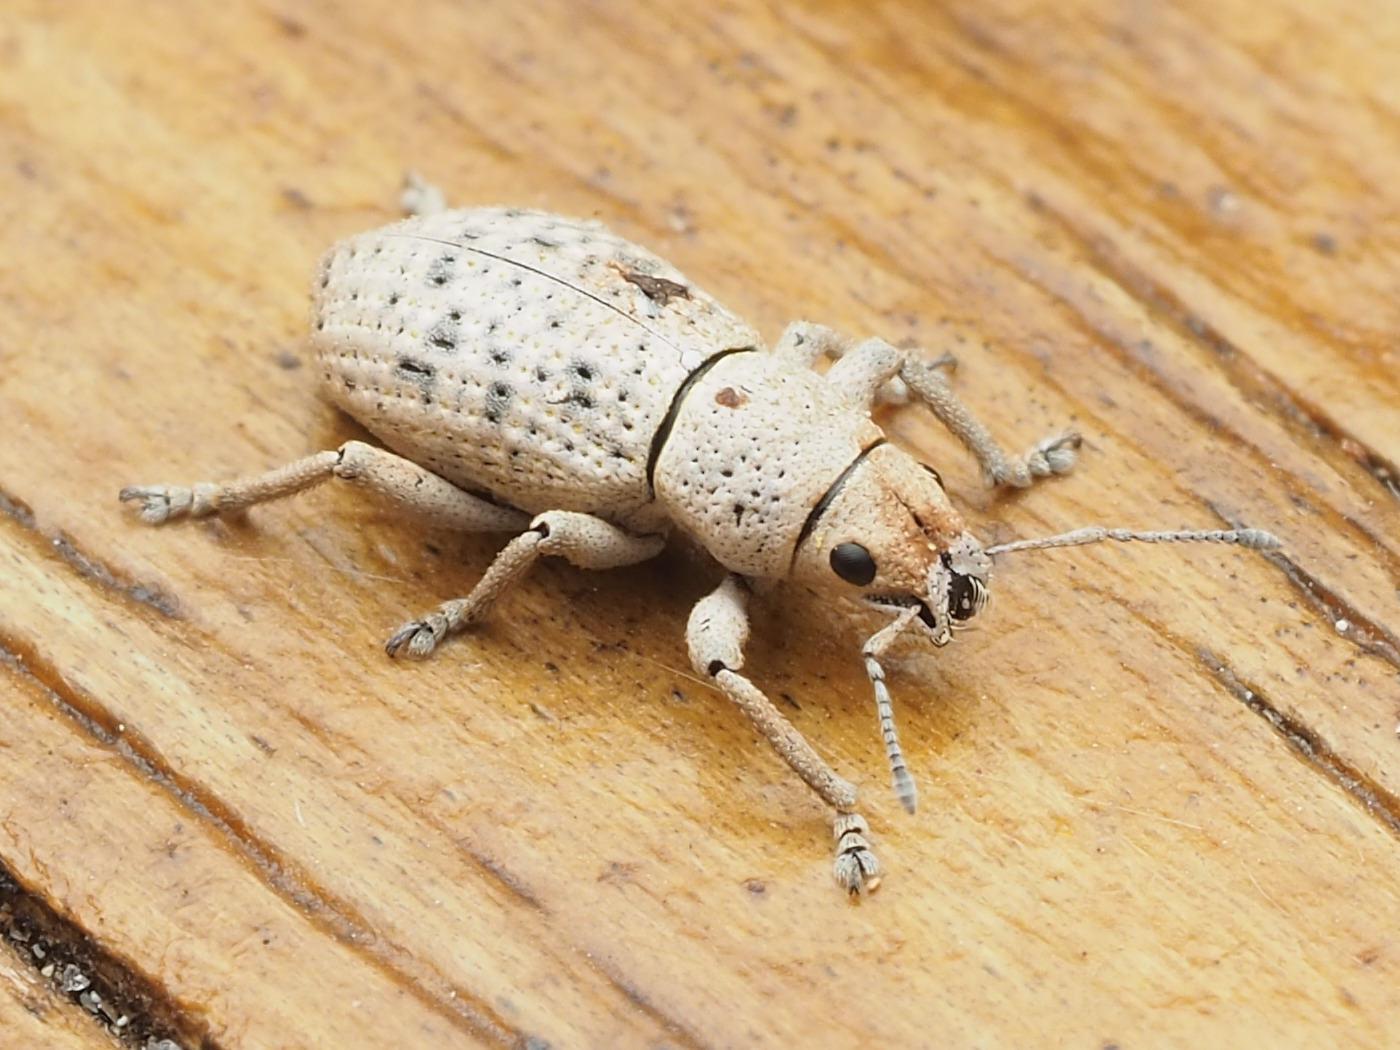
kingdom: Animalia
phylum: Arthropoda
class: Insecta
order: Coleoptera
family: Curculionidae
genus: Artipus
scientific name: Artipus floridanus
